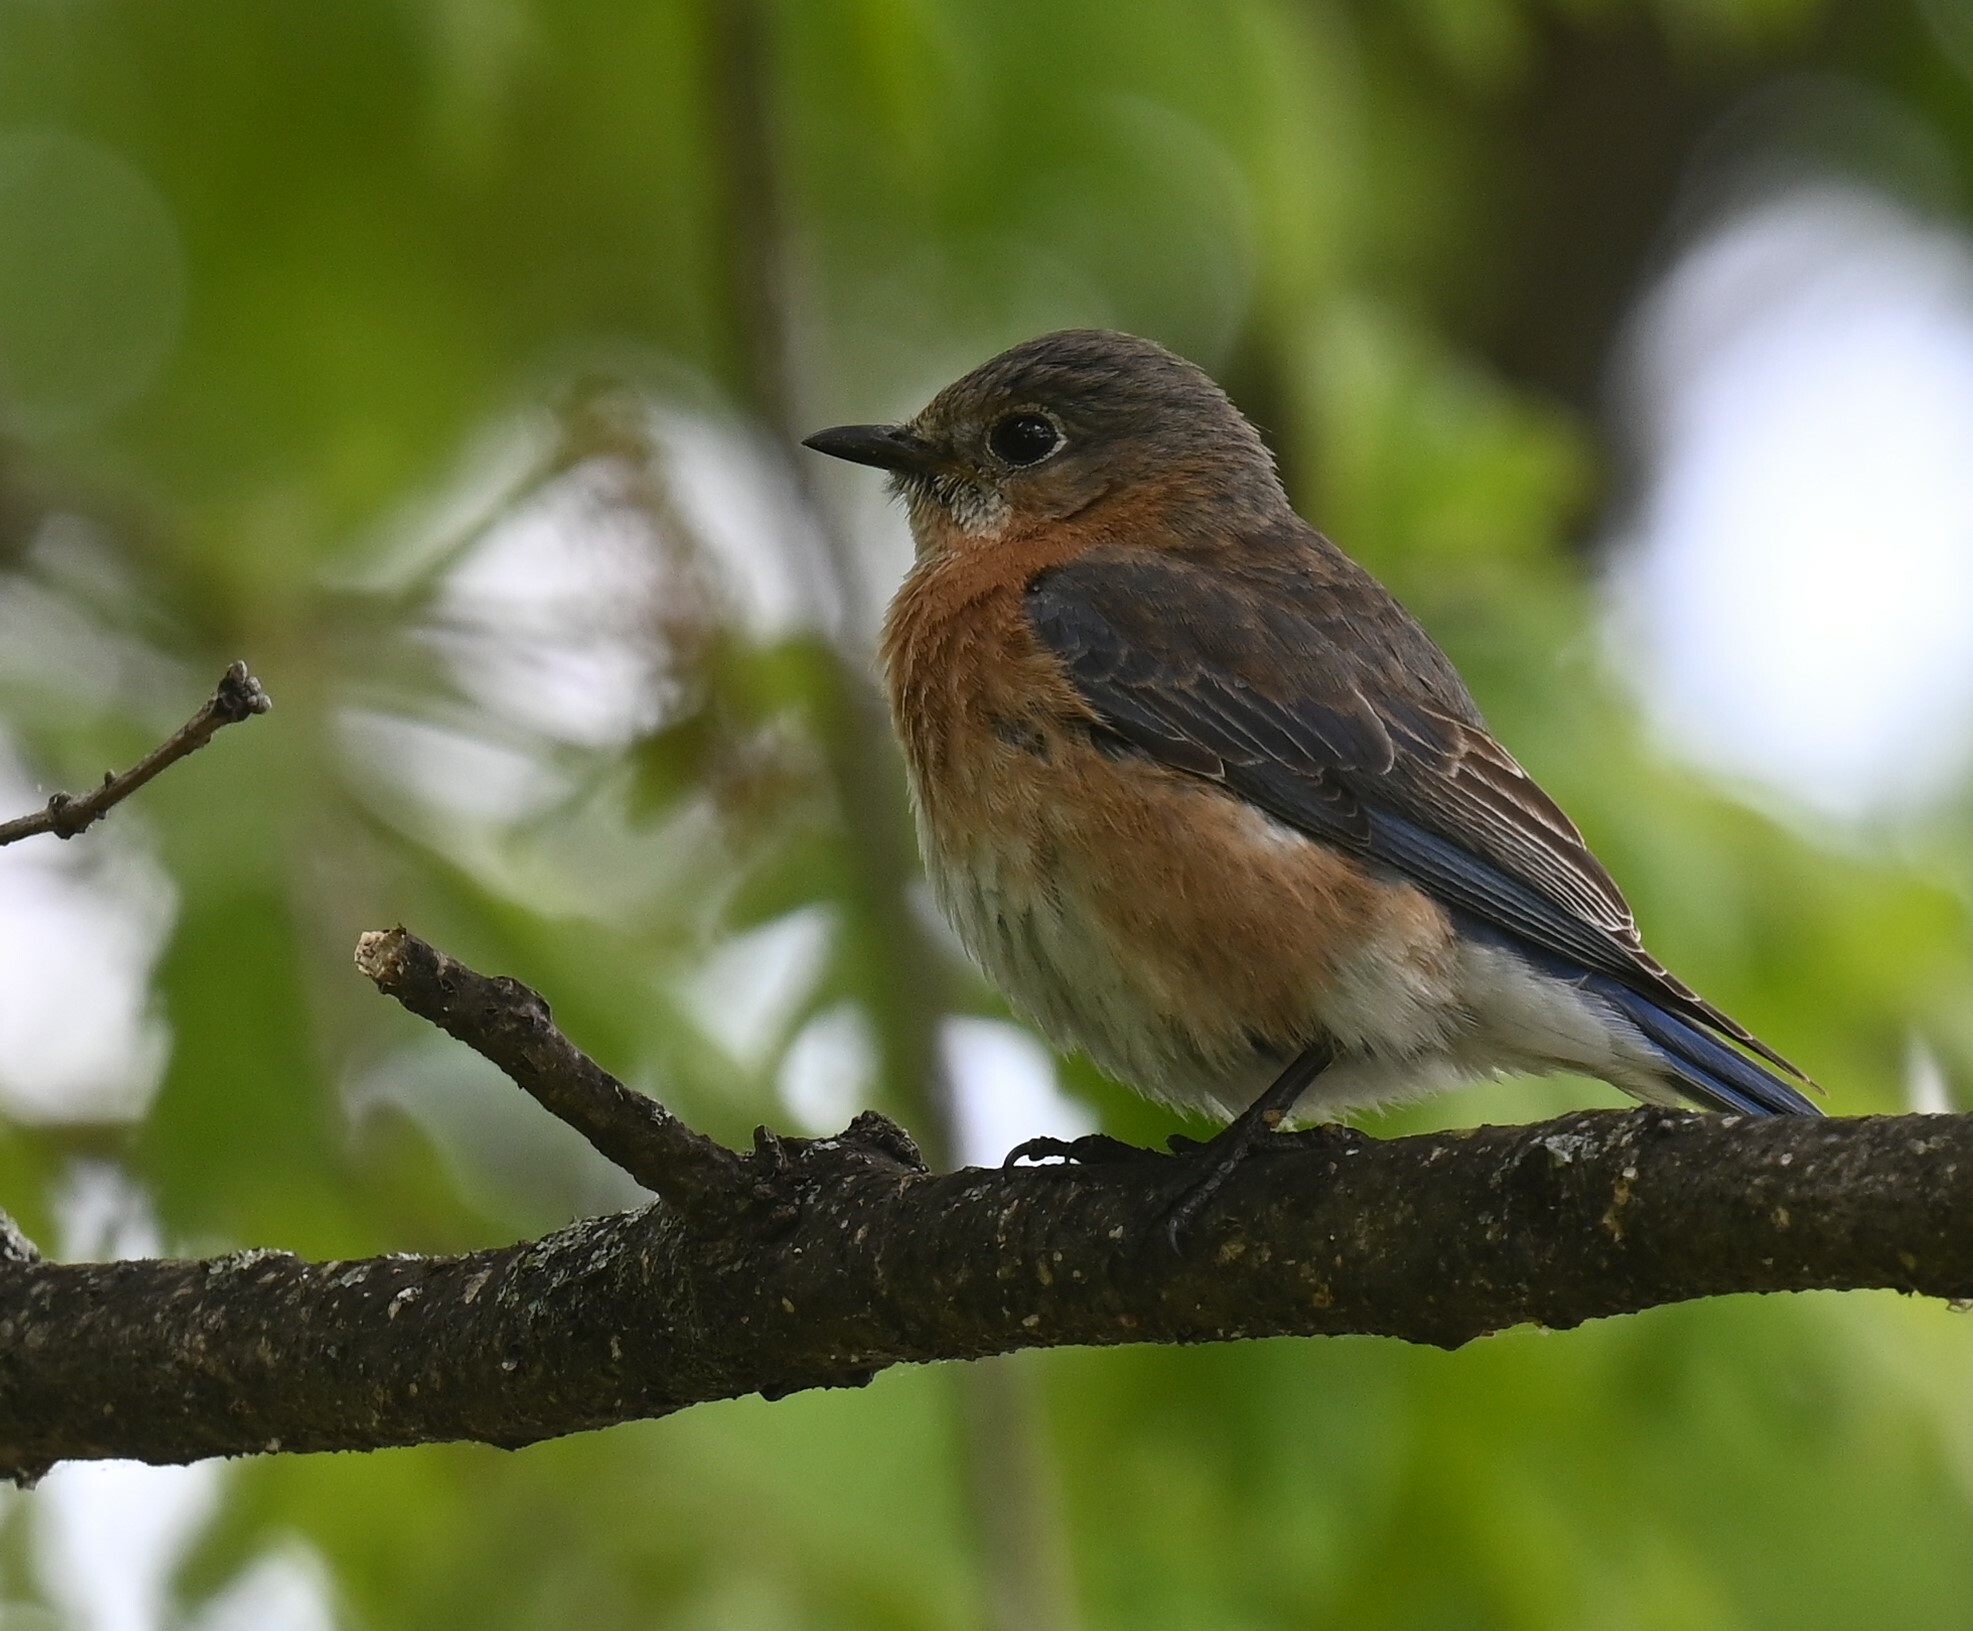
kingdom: Animalia
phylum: Chordata
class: Aves
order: Passeriformes
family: Turdidae
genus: Sialia
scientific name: Sialia sialis
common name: Eastern bluebird
